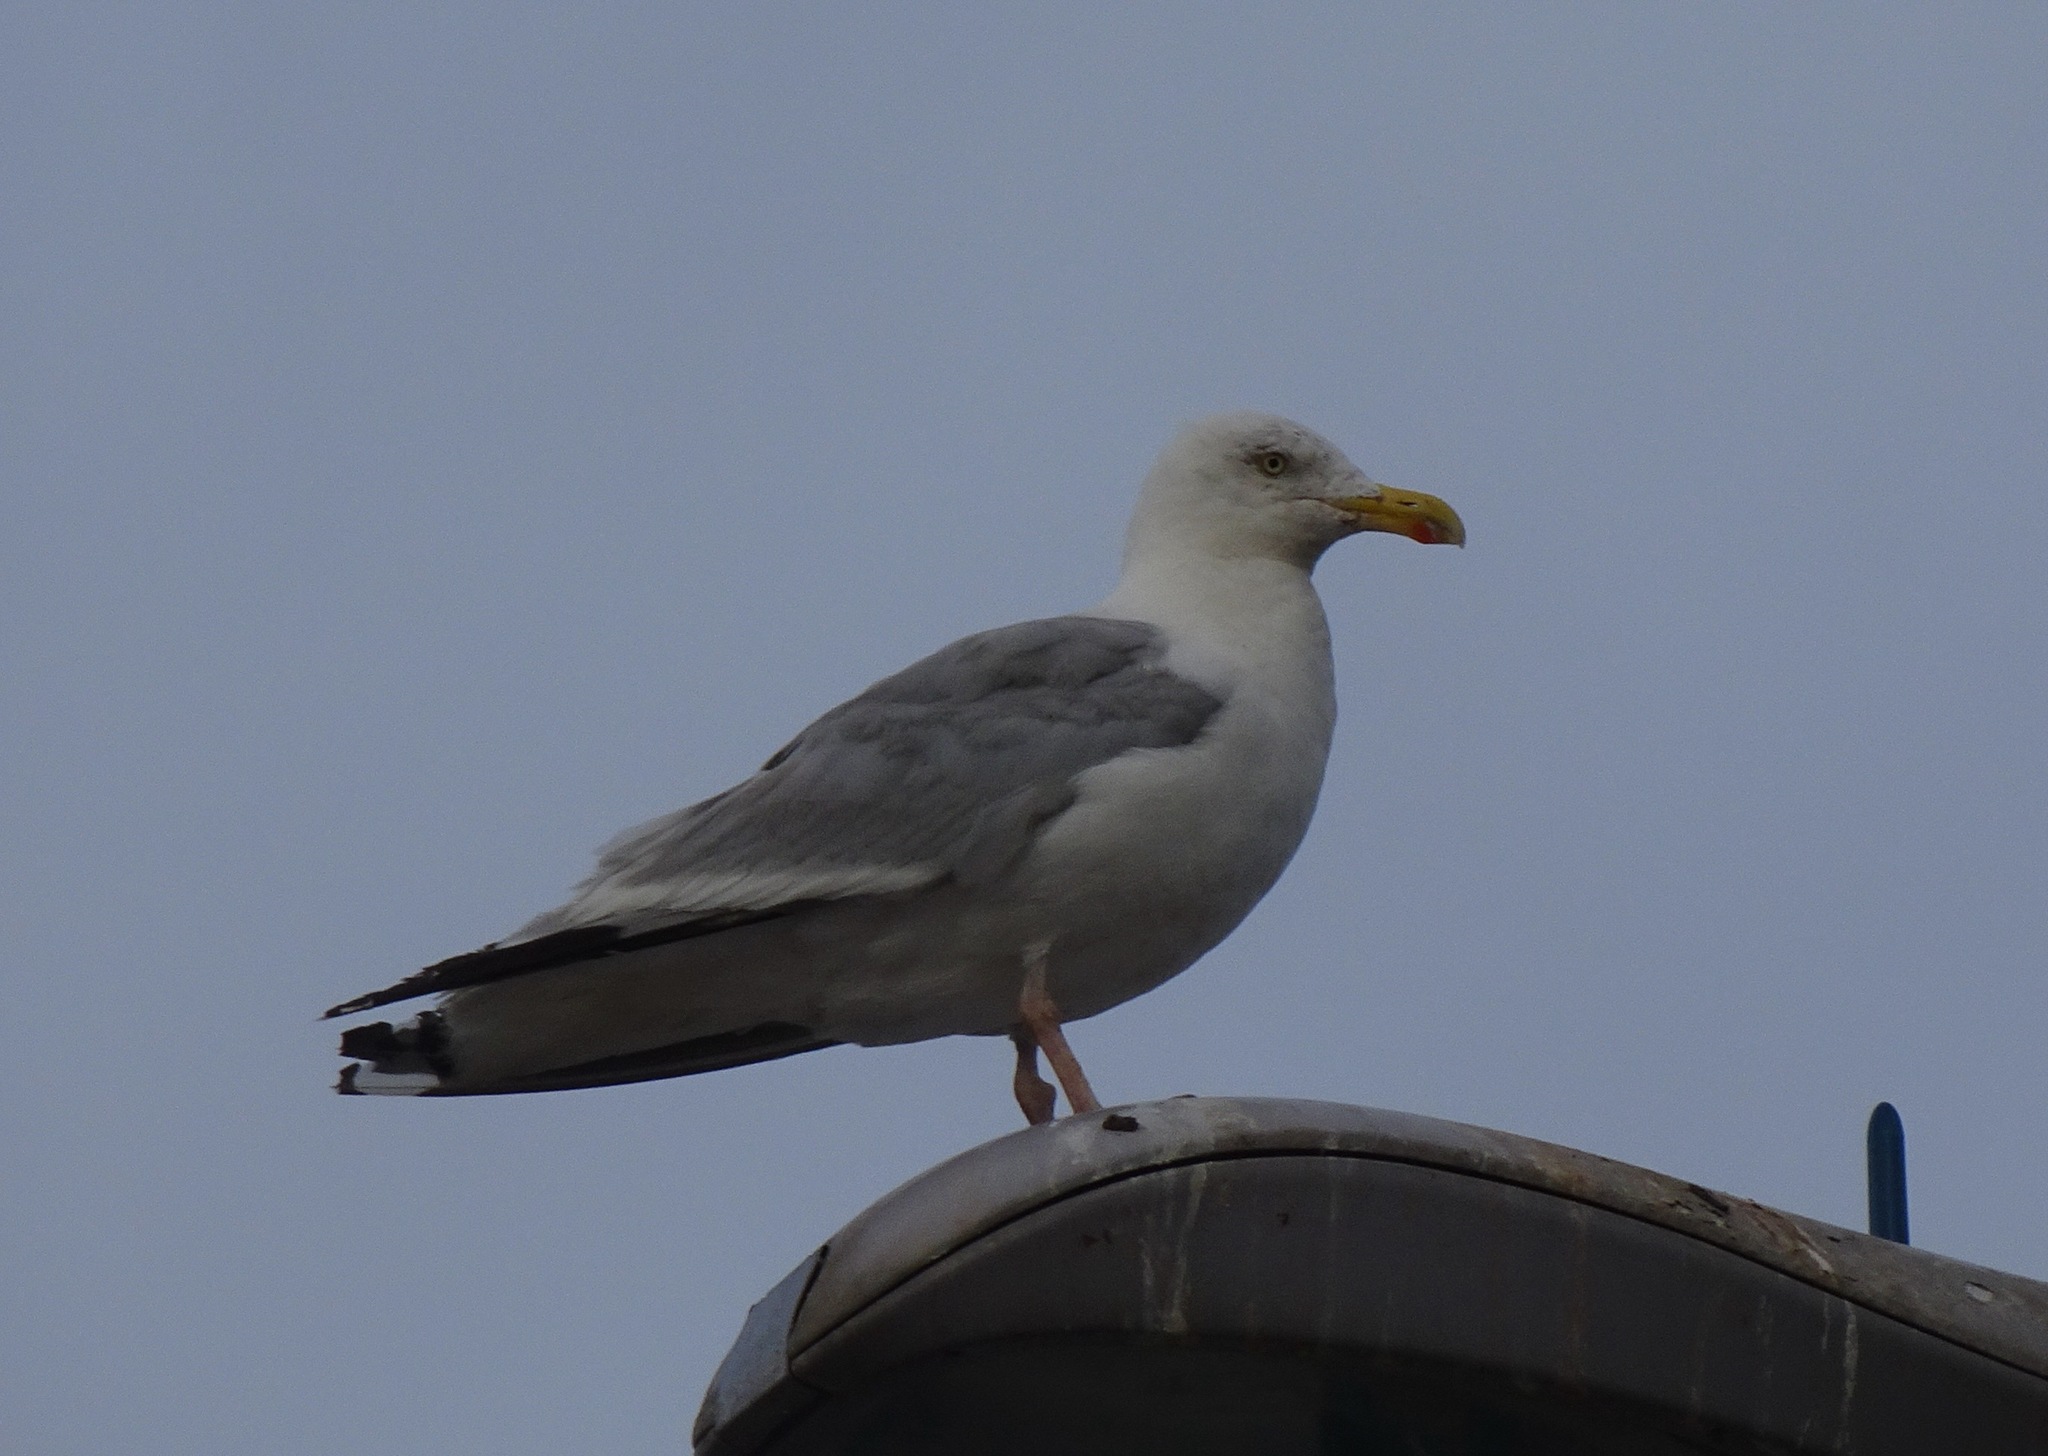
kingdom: Animalia
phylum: Chordata
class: Aves
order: Charadriiformes
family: Laridae
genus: Larus
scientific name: Larus argentatus
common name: Herring gull
